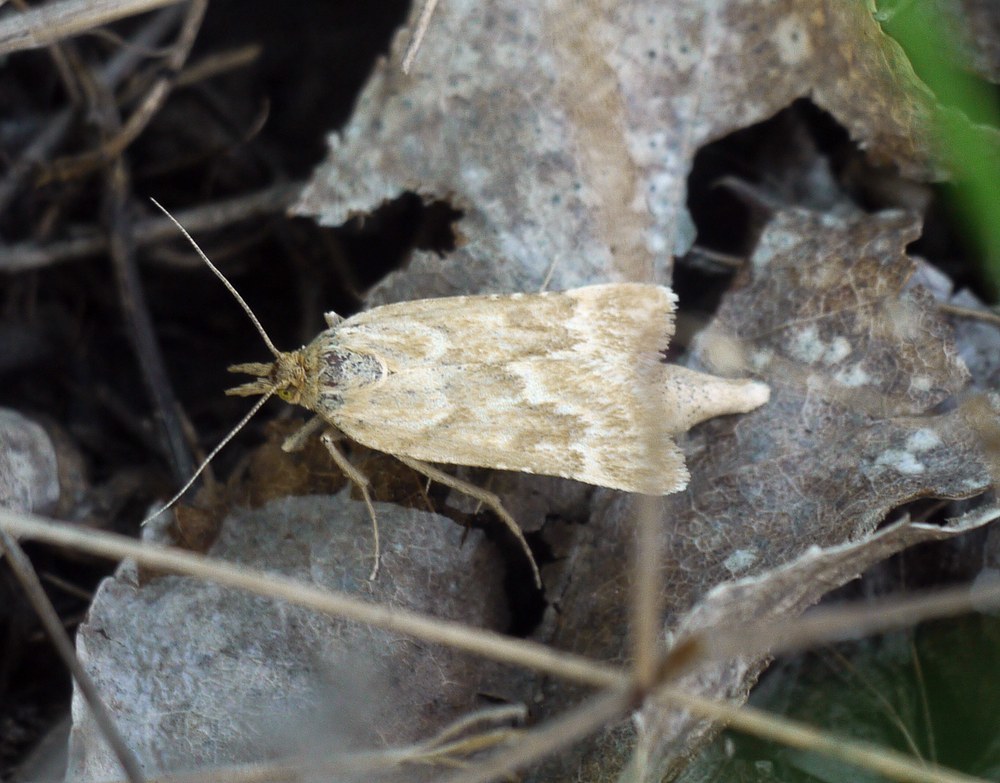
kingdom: Animalia
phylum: Arthropoda
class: Insecta
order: Lepidoptera
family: Pyralidae
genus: Synaphe
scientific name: Synaphe moldavica
